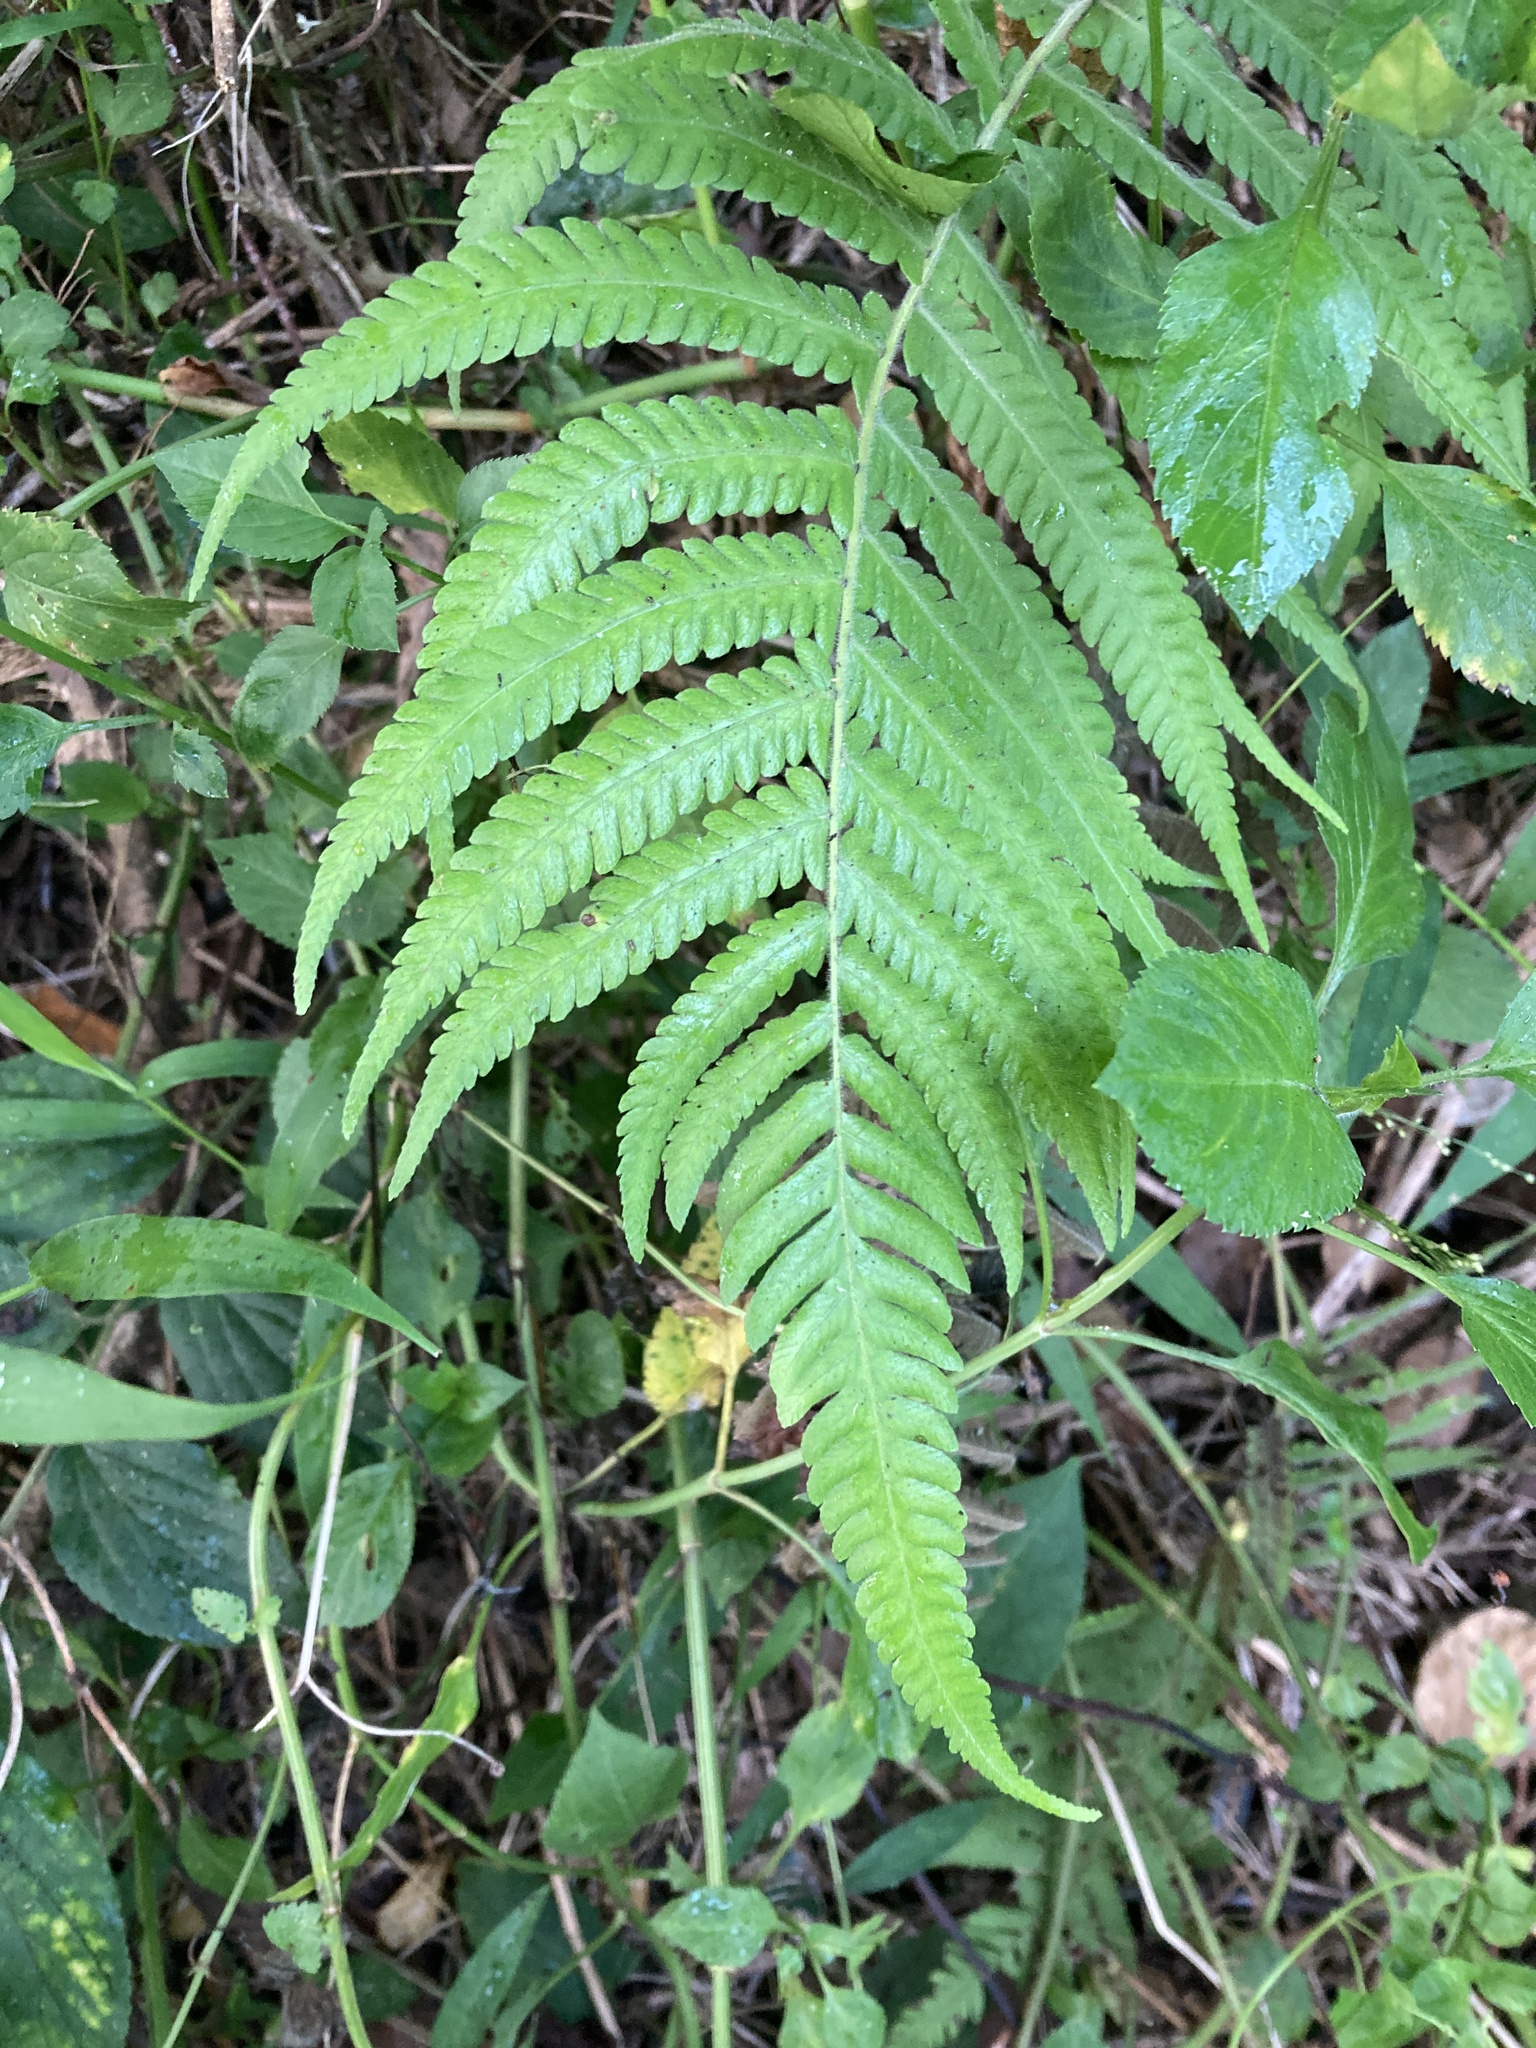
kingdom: Plantae
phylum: Tracheophyta
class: Polypodiopsida
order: Polypodiales
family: Thelypteridaceae
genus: Christella
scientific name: Christella parasitica
